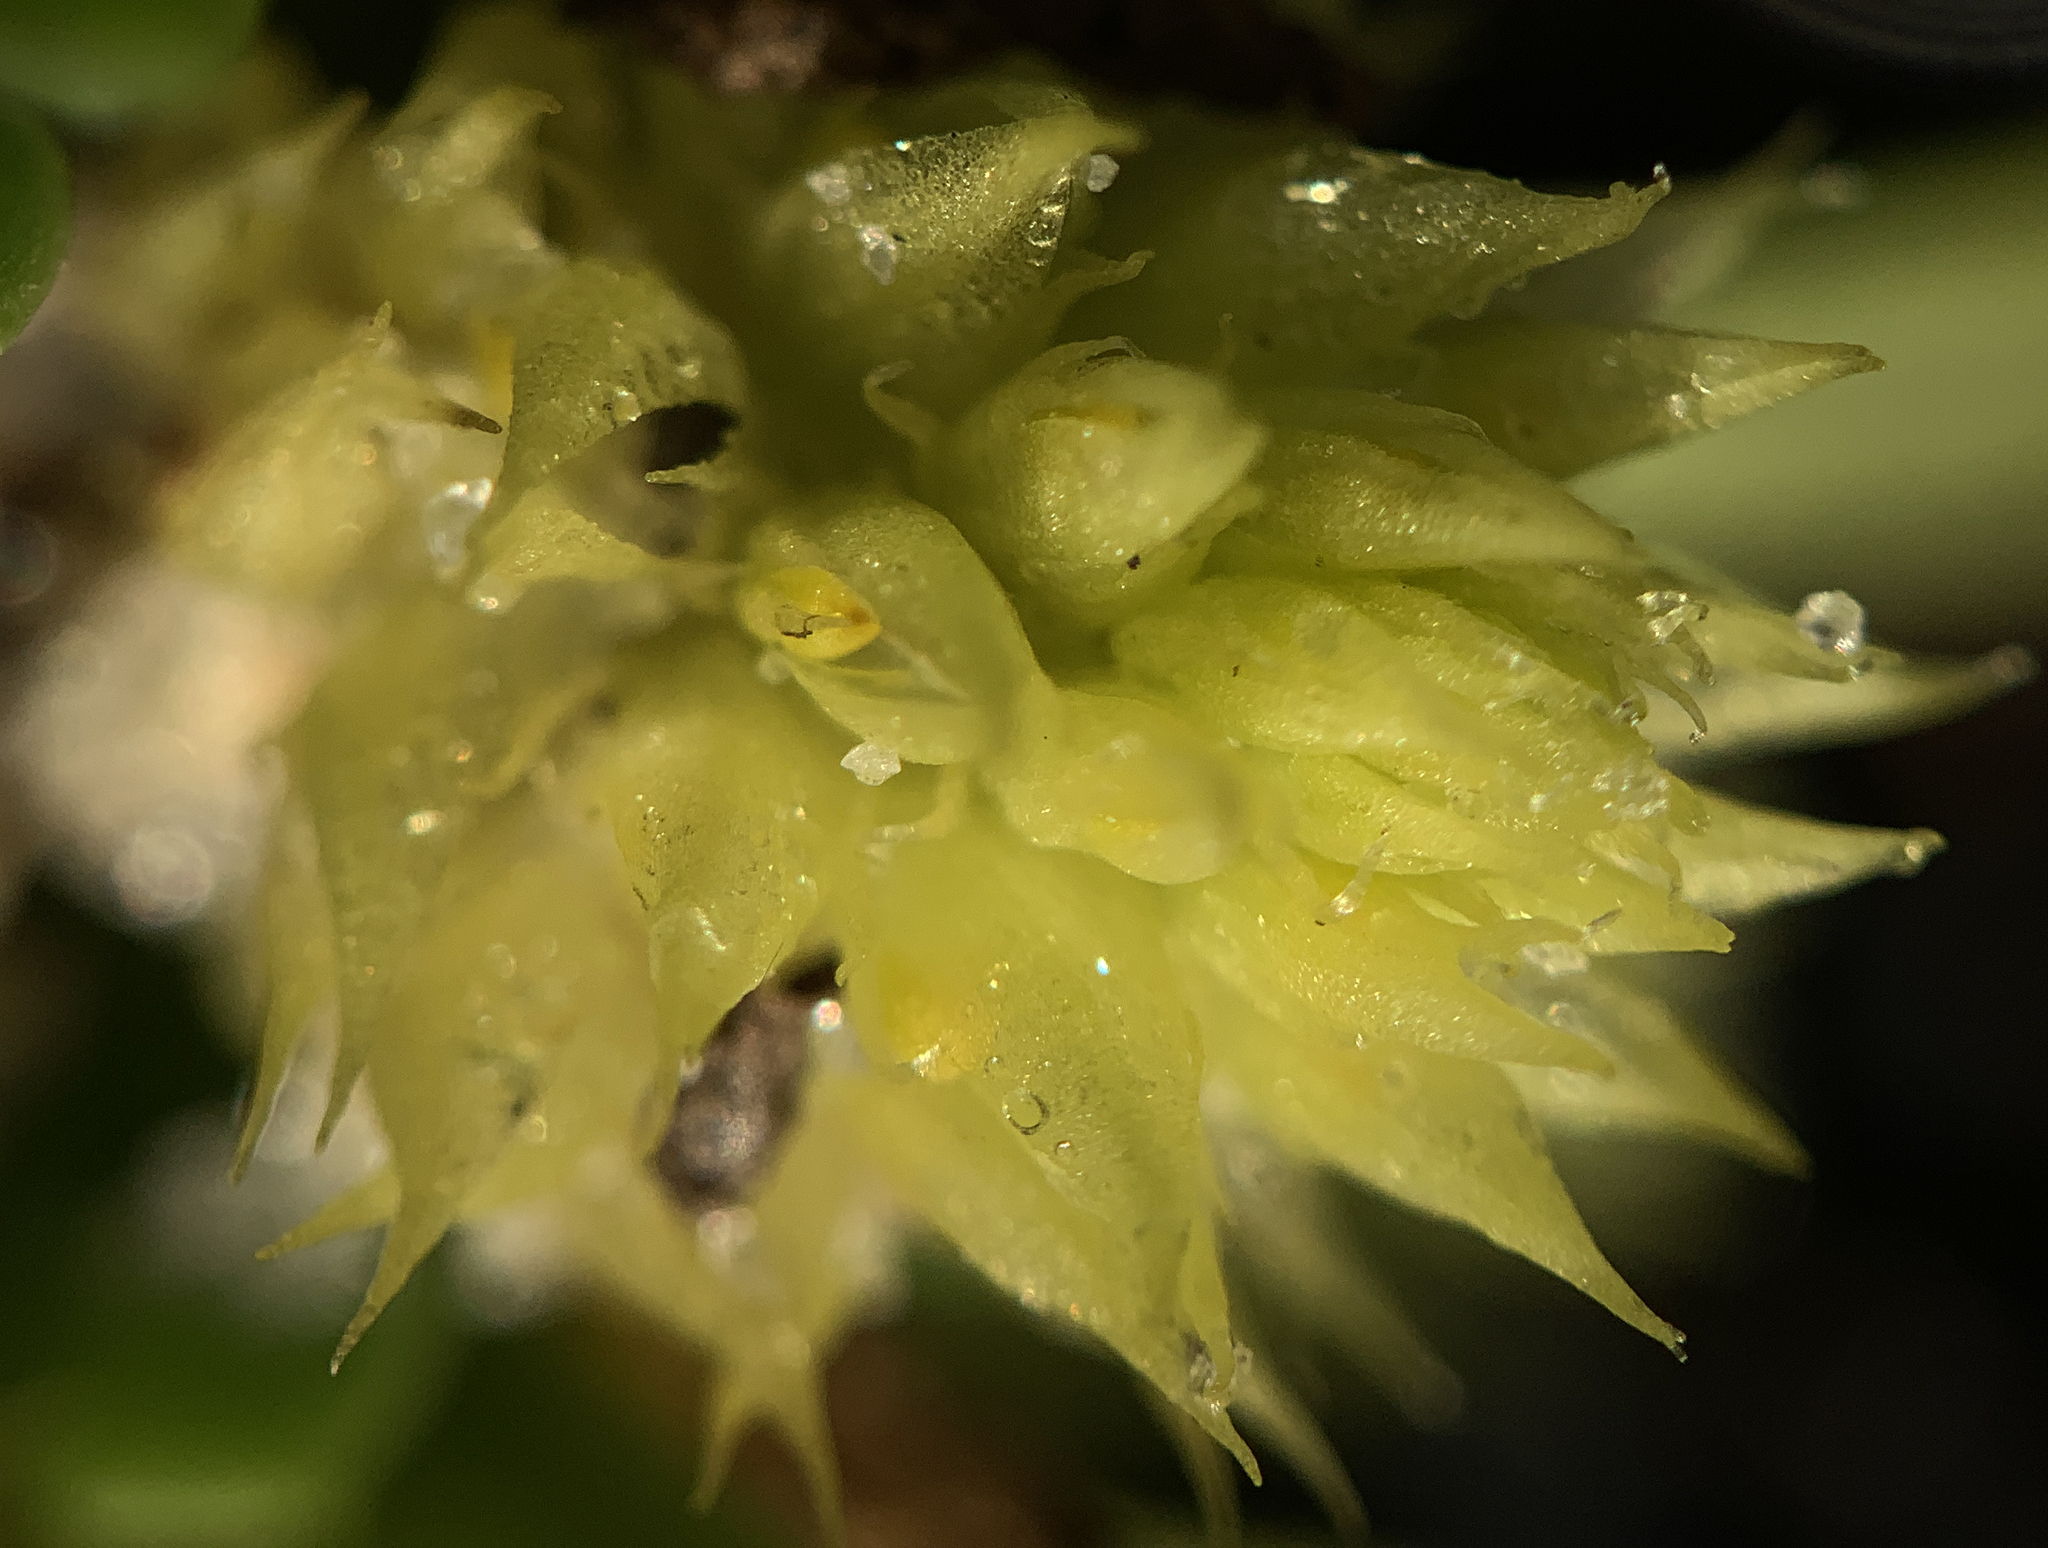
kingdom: Plantae
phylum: Tracheophyta
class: Magnoliopsida
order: Fabales
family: Polygalaceae
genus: Polygala
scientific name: Polygala nana
